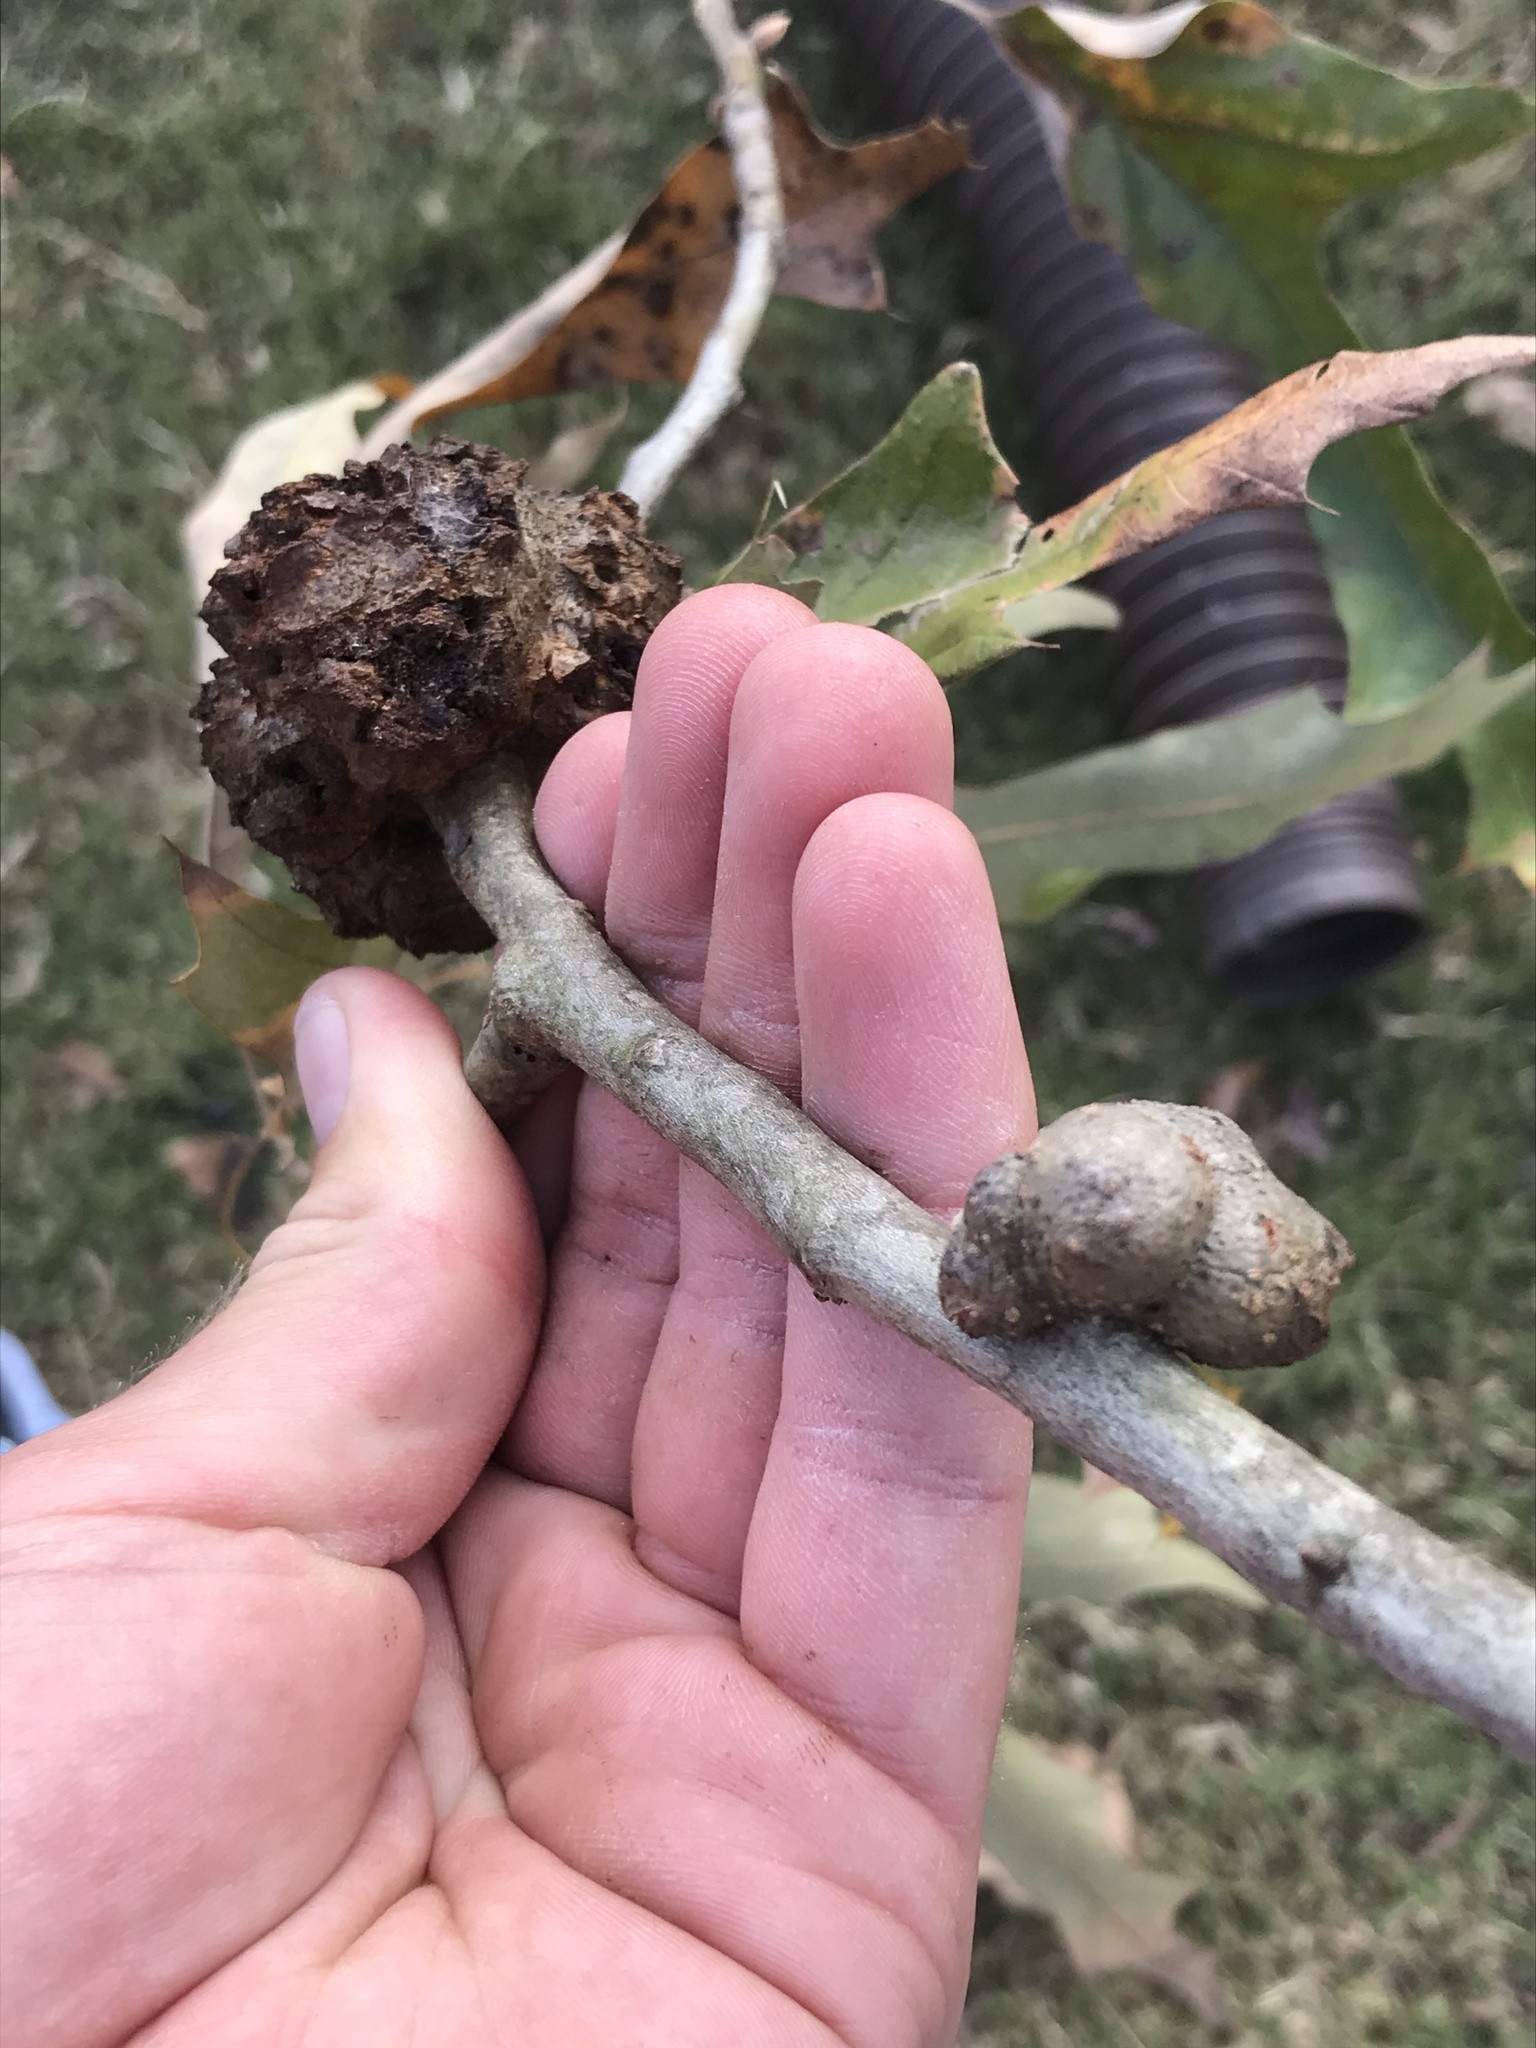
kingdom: Animalia
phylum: Arthropoda
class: Insecta
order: Hymenoptera
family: Cynipidae
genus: Callirhytis
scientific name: Callirhytis
